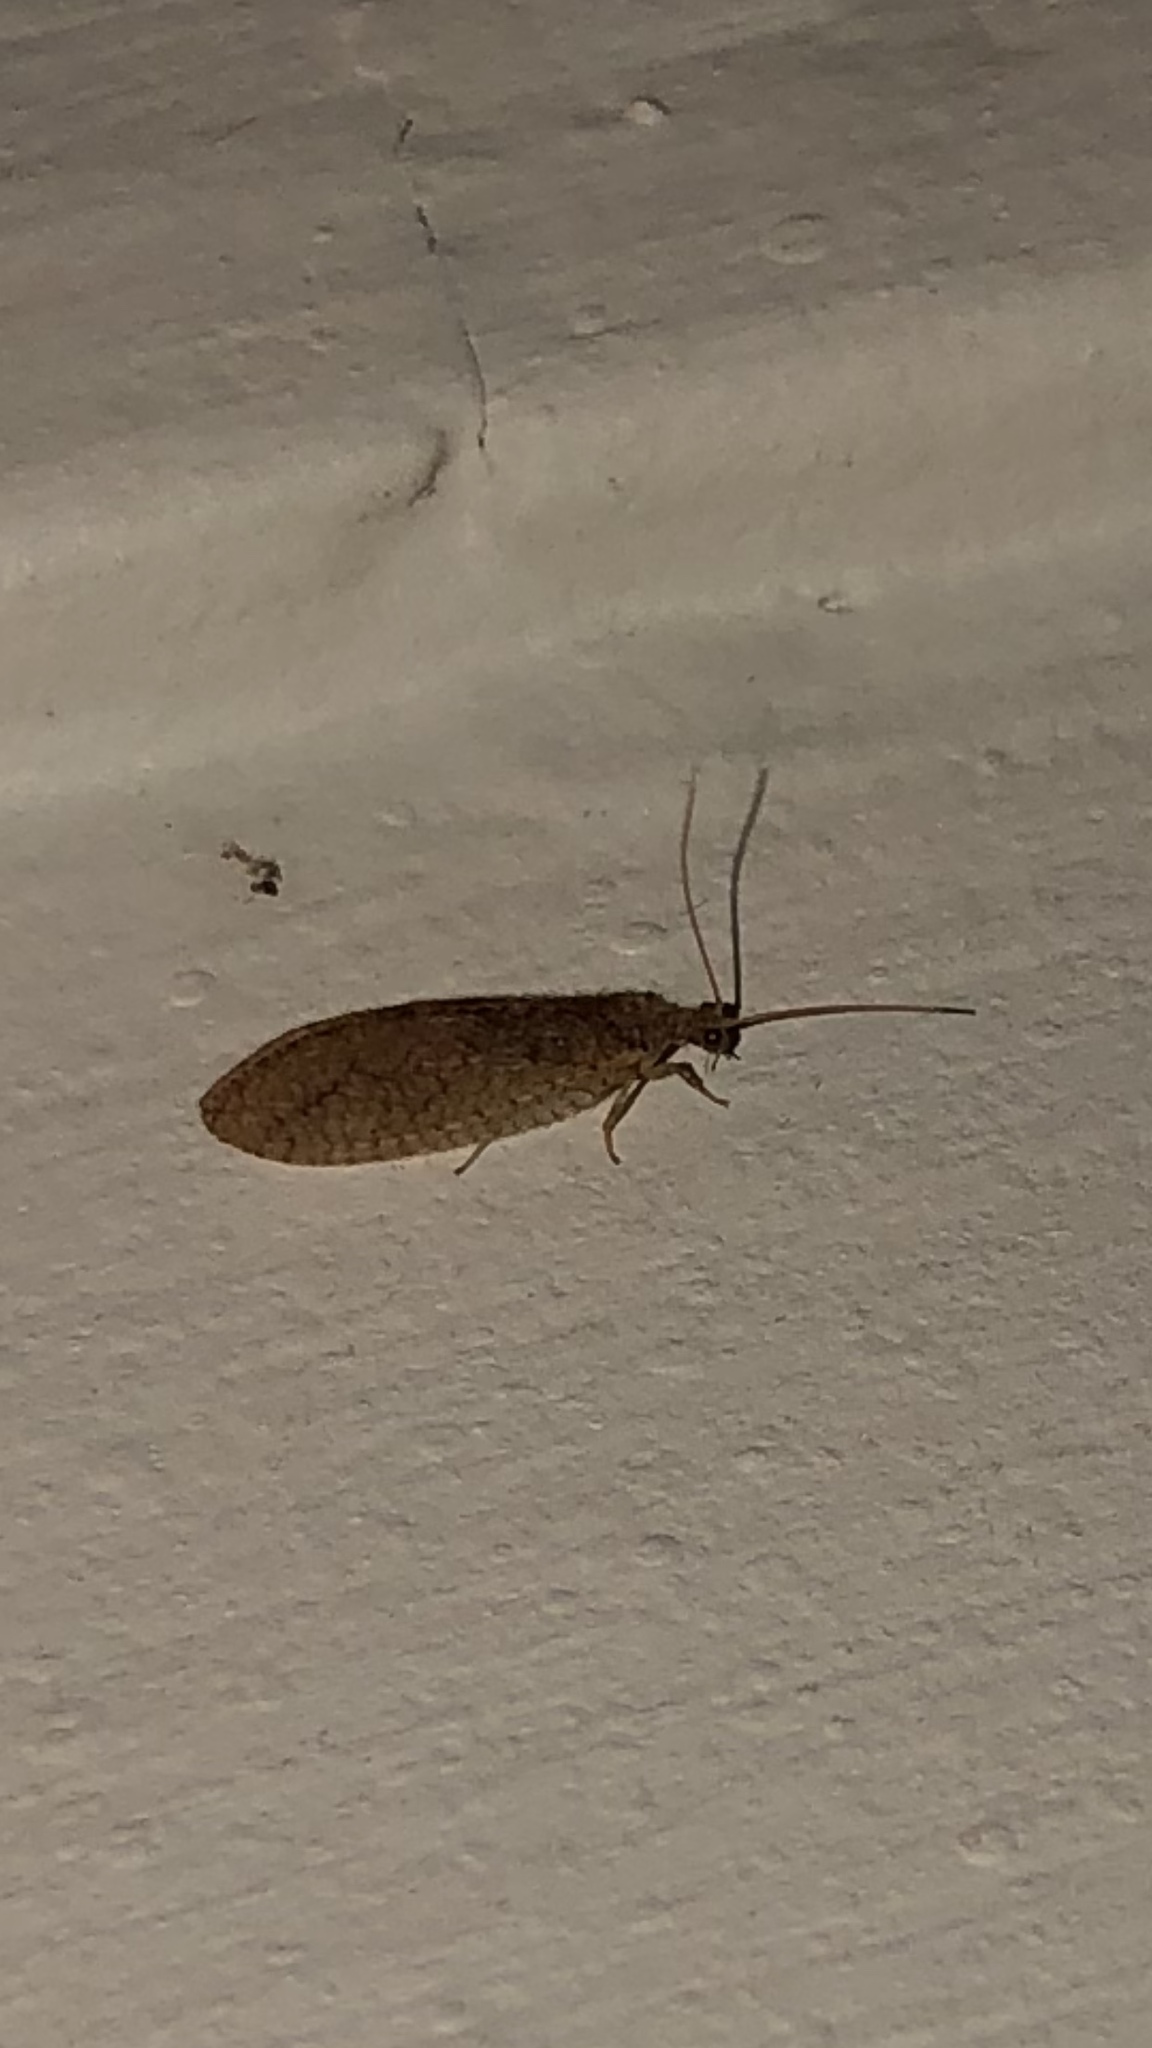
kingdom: Animalia
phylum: Arthropoda
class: Insecta
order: Neuroptera
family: Hemerobiidae
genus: Micromus
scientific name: Micromus posticus
